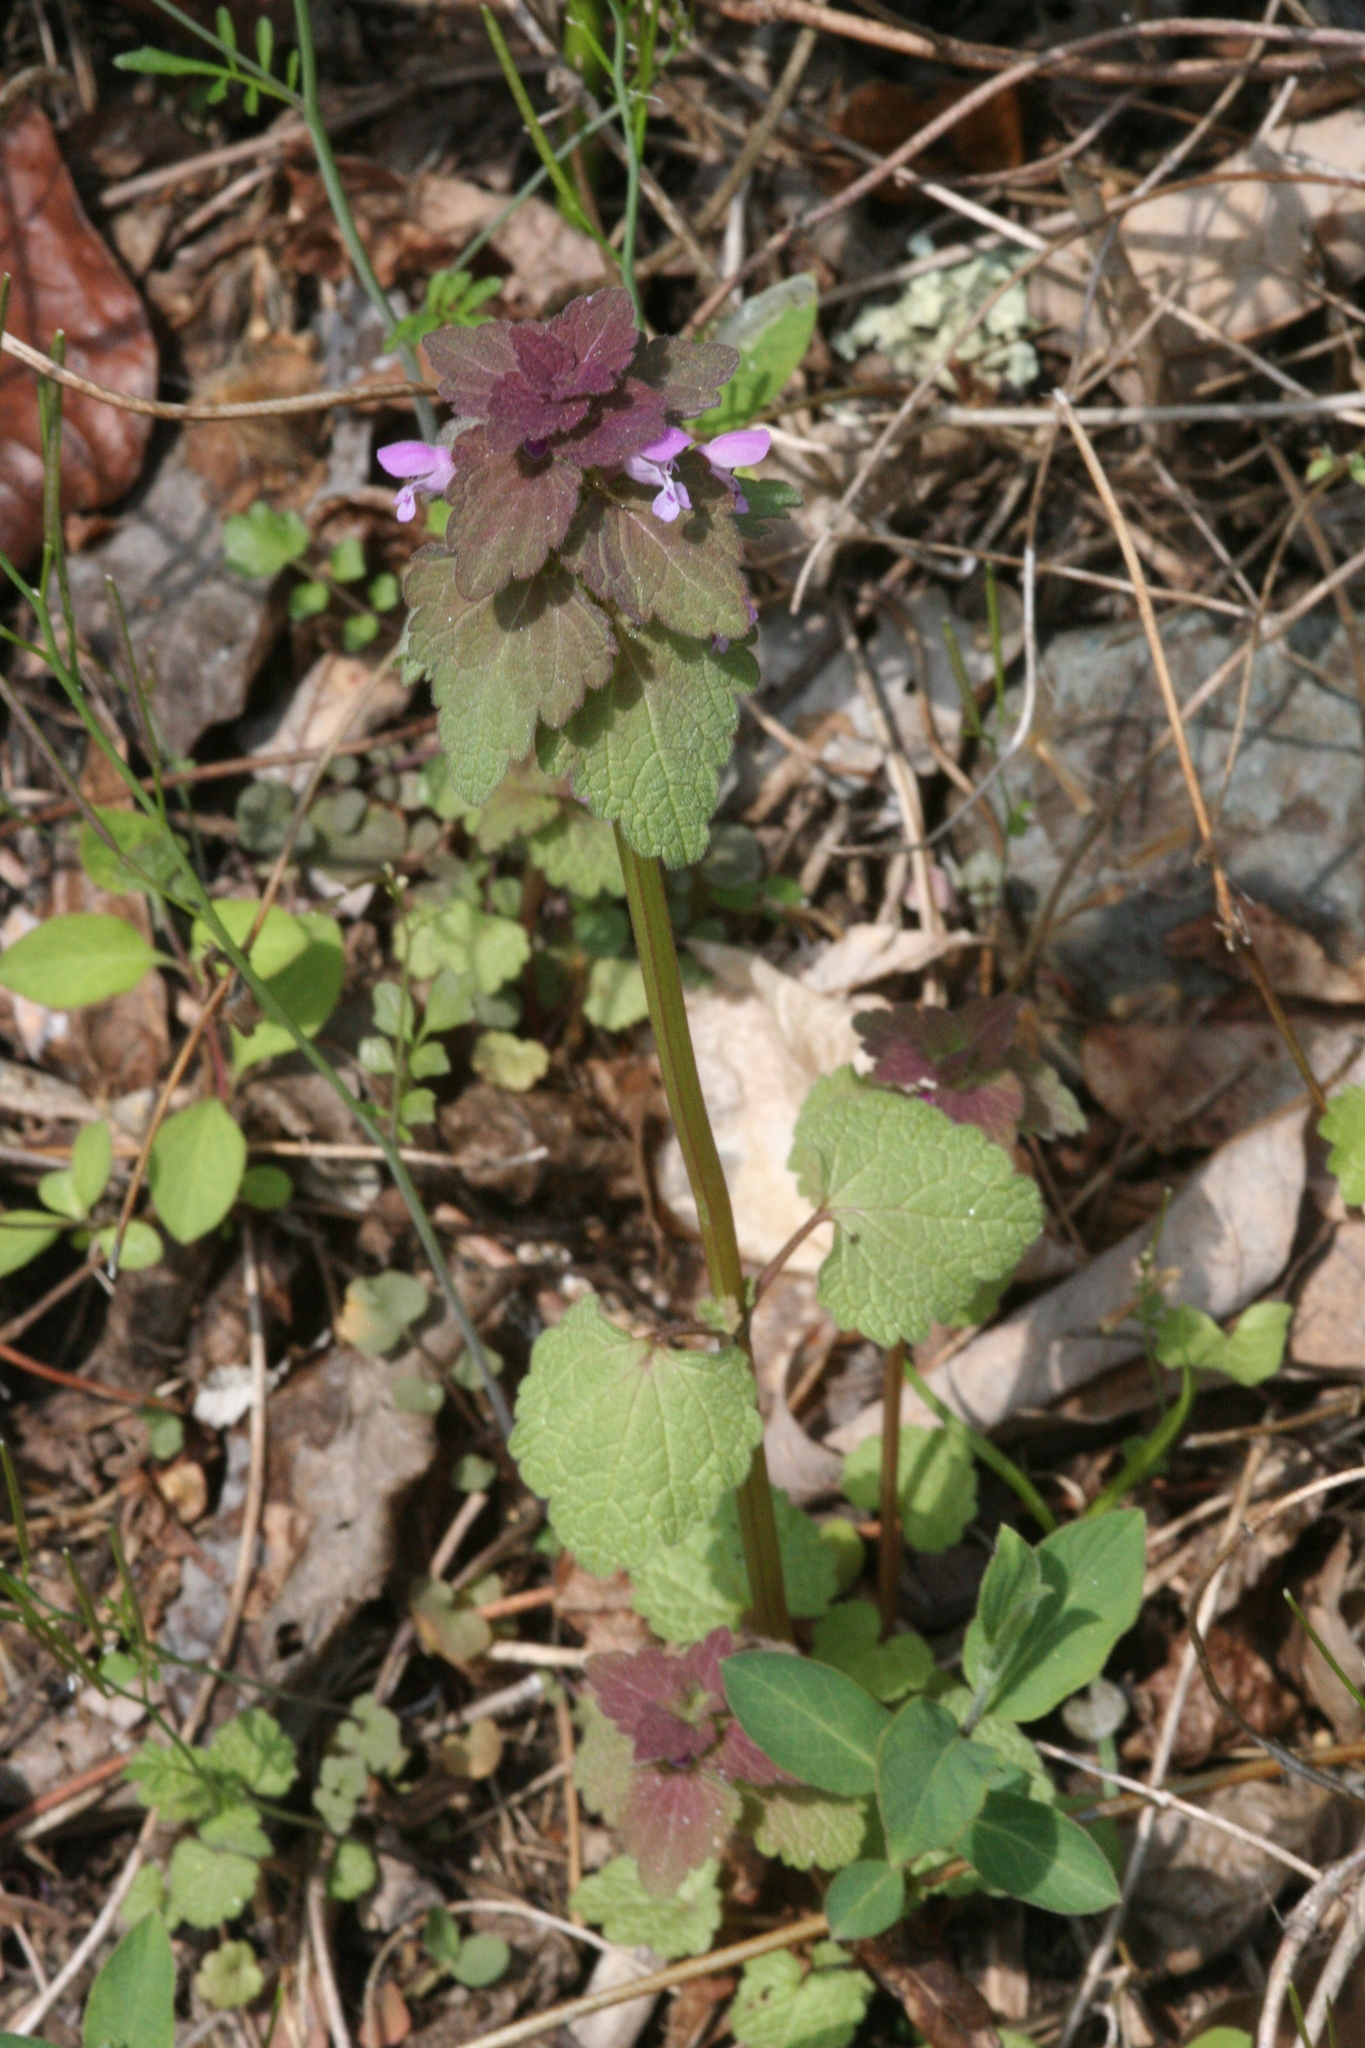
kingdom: Plantae
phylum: Tracheophyta
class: Magnoliopsida
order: Lamiales
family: Lamiaceae
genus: Lamium
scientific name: Lamium purpureum
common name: Red dead-nettle
